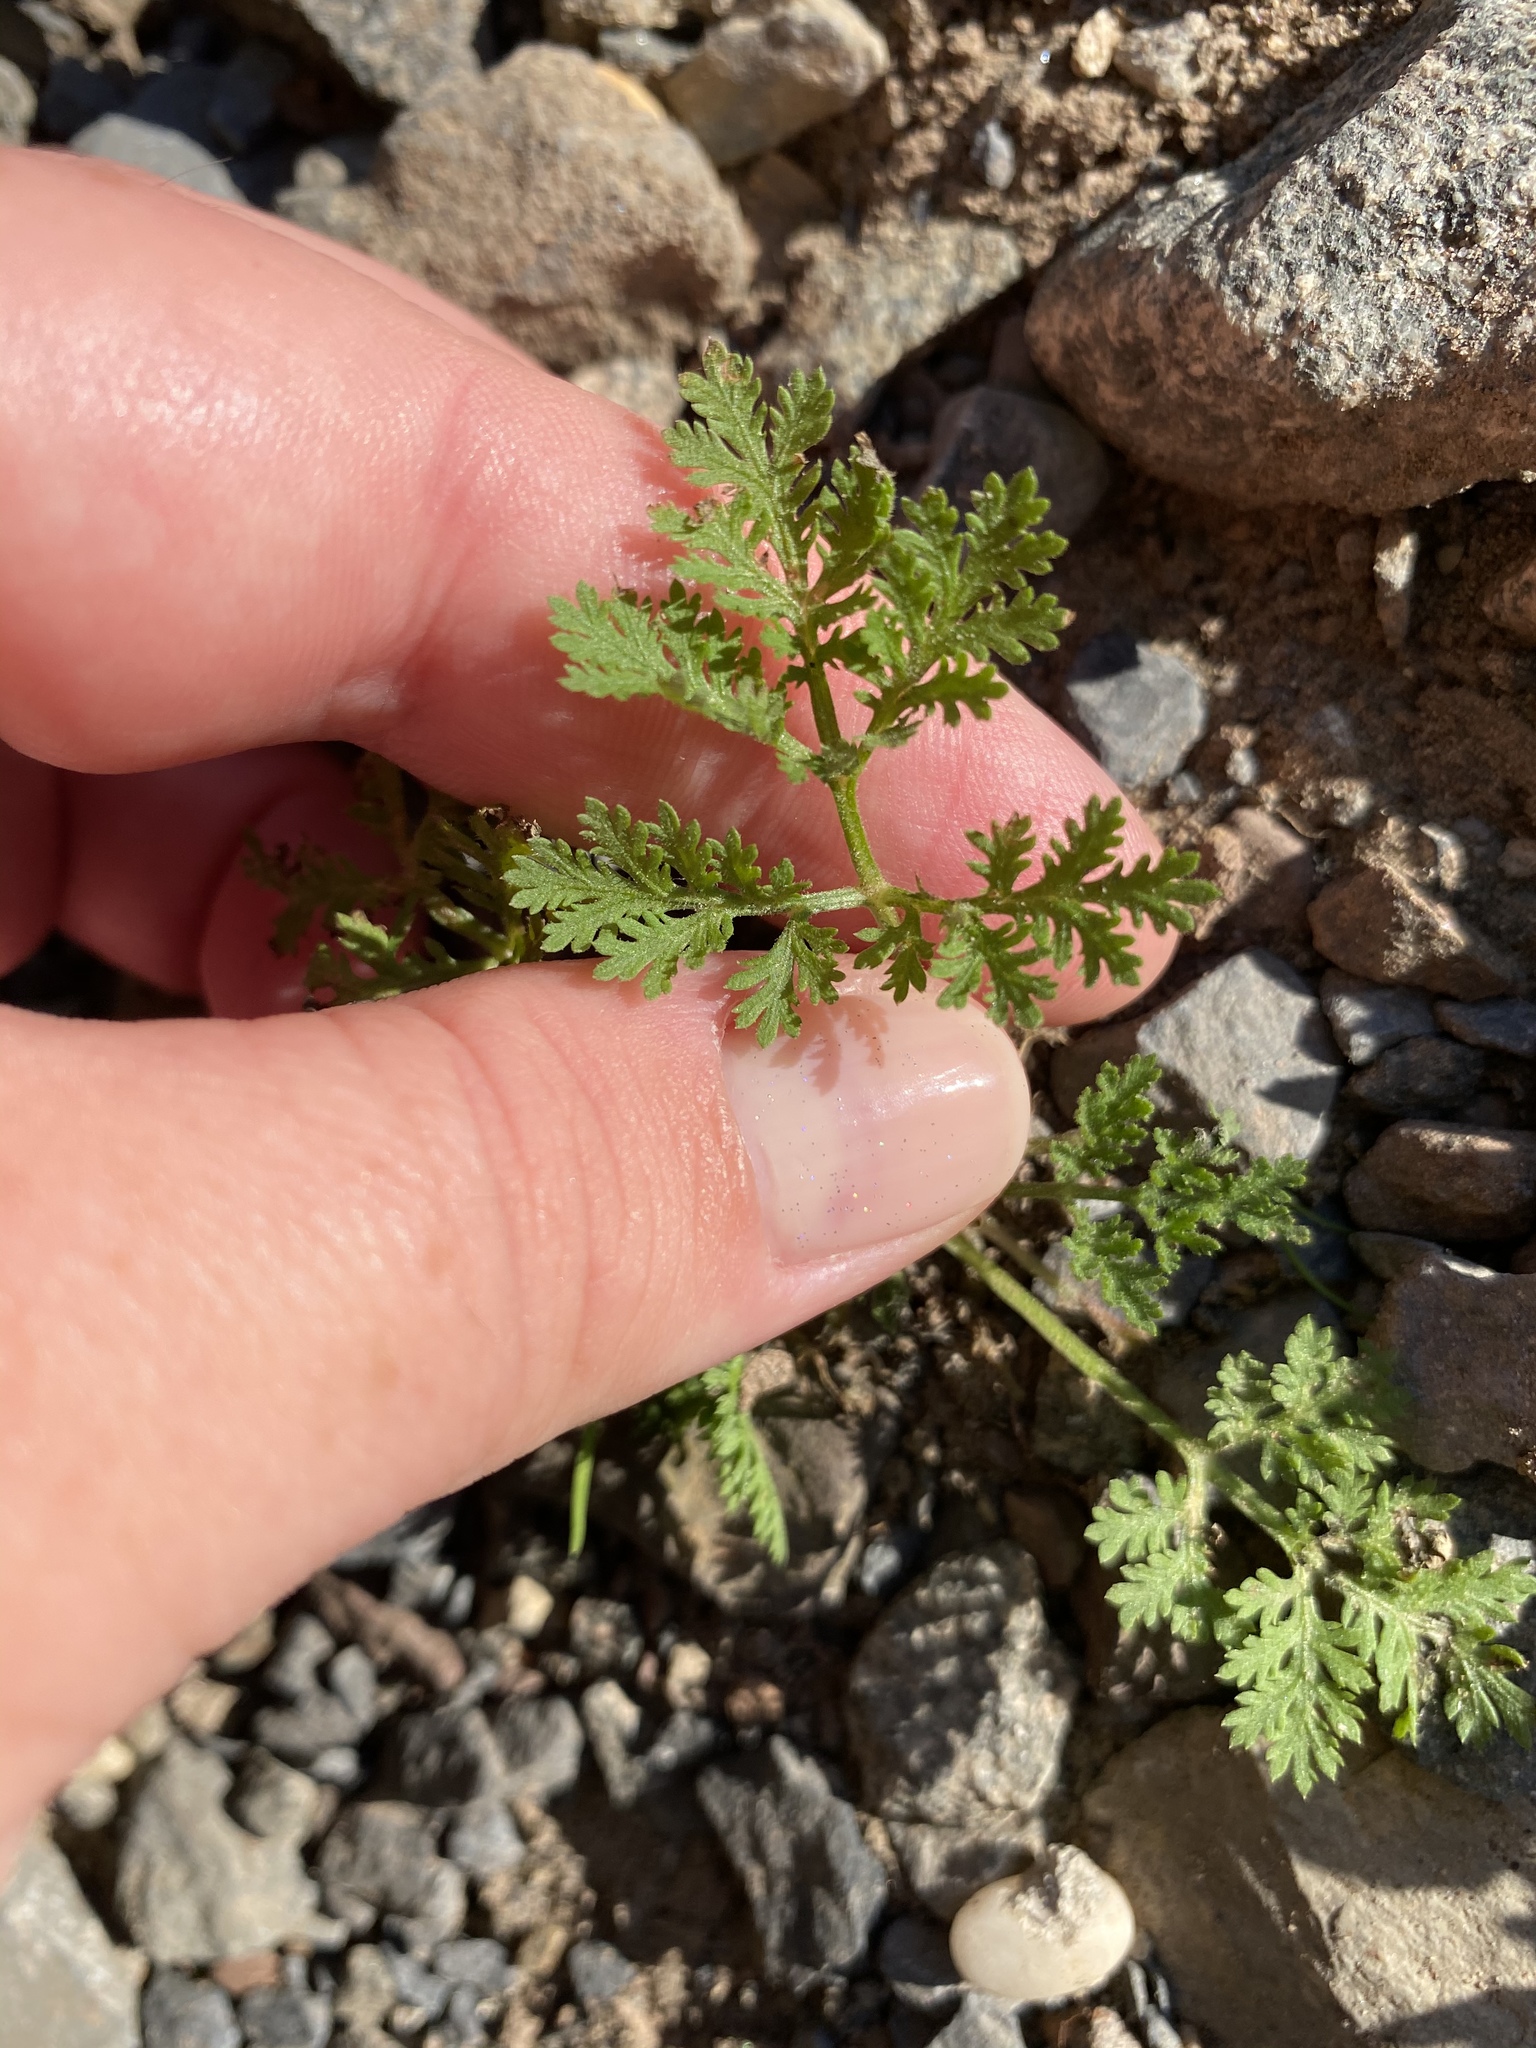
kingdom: Plantae
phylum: Tracheophyta
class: Magnoliopsida
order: Asterales
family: Asteraceae
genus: Artemisia
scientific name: Artemisia annua
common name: Sweet sagewort
